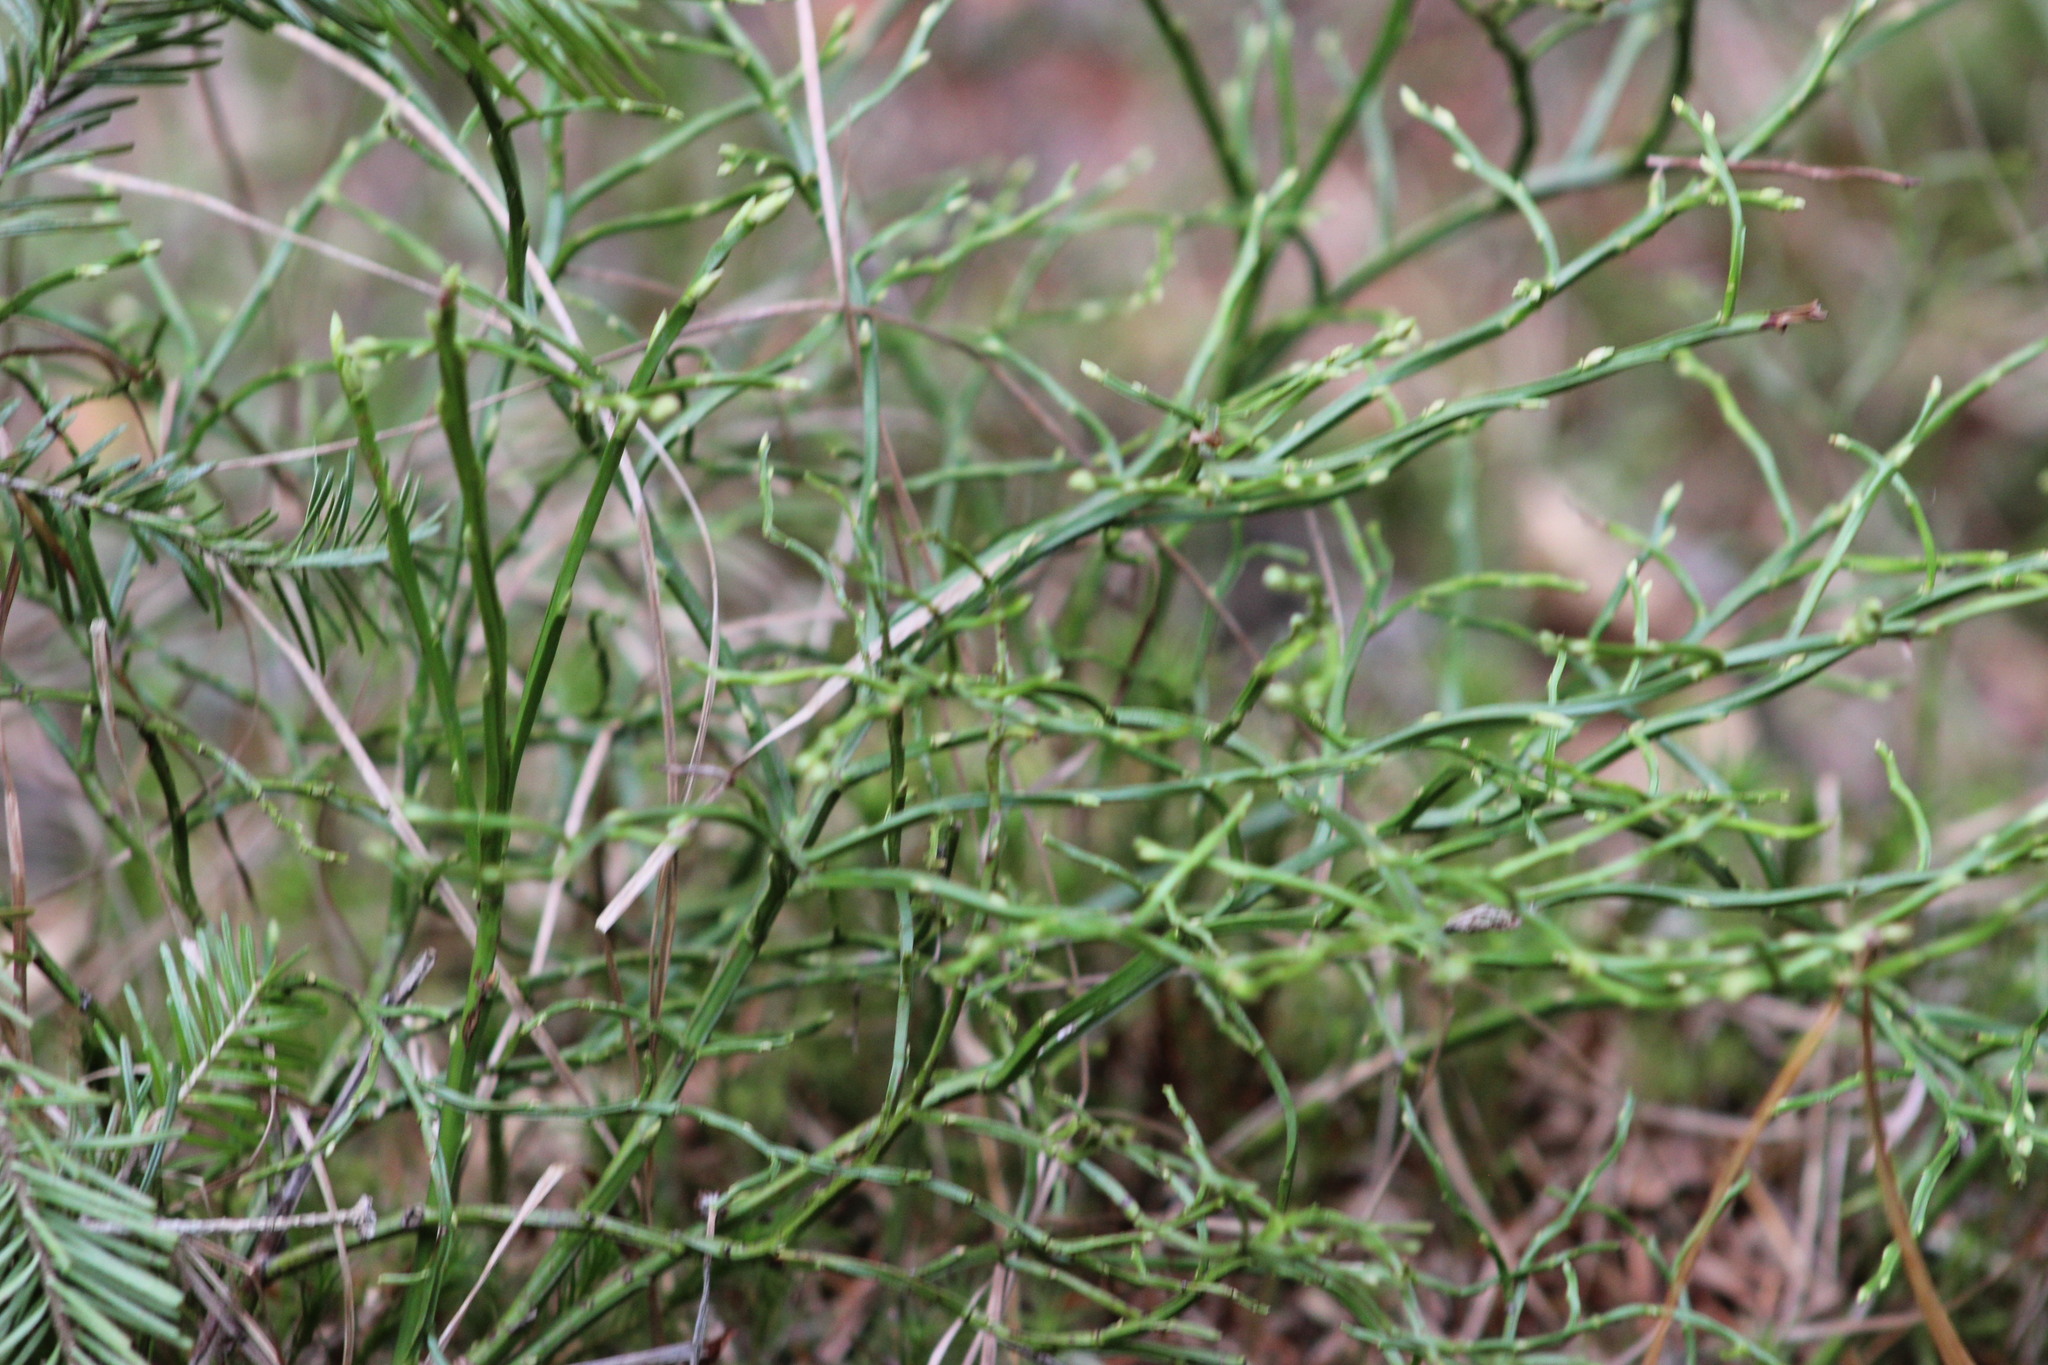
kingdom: Plantae
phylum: Tracheophyta
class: Magnoliopsida
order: Ericales
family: Ericaceae
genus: Vaccinium
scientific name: Vaccinium myrtillus
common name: Bilberry
